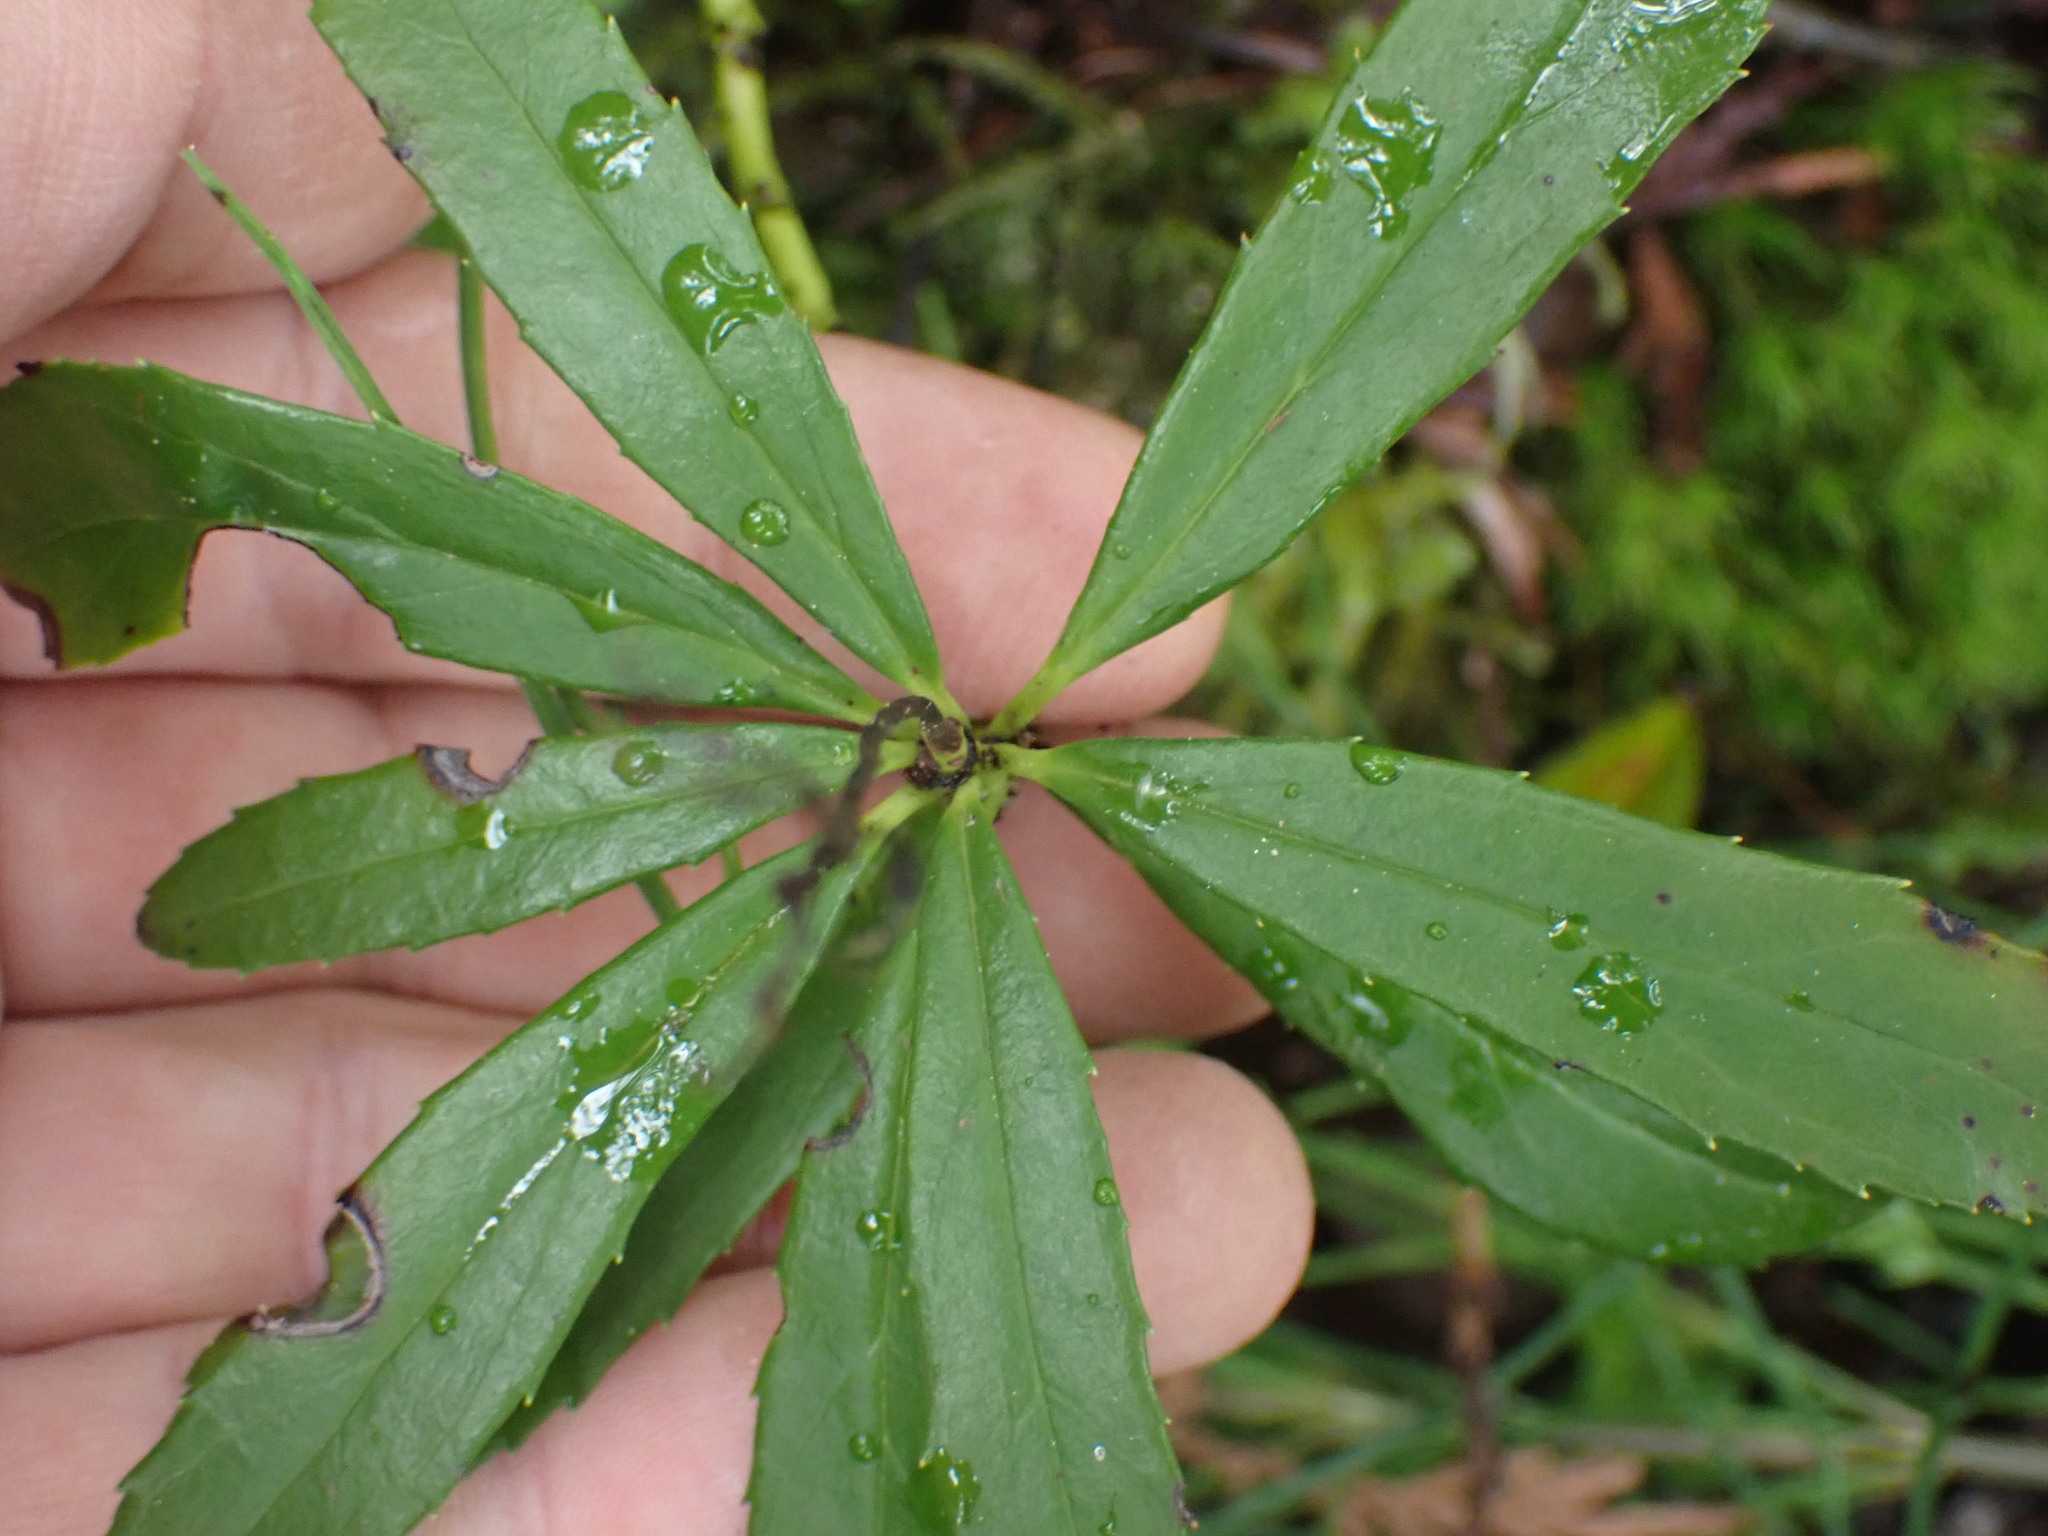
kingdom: Plantae
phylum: Tracheophyta
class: Magnoliopsida
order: Ericales
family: Ericaceae
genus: Chimaphila
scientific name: Chimaphila umbellata
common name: Pipsissewa
